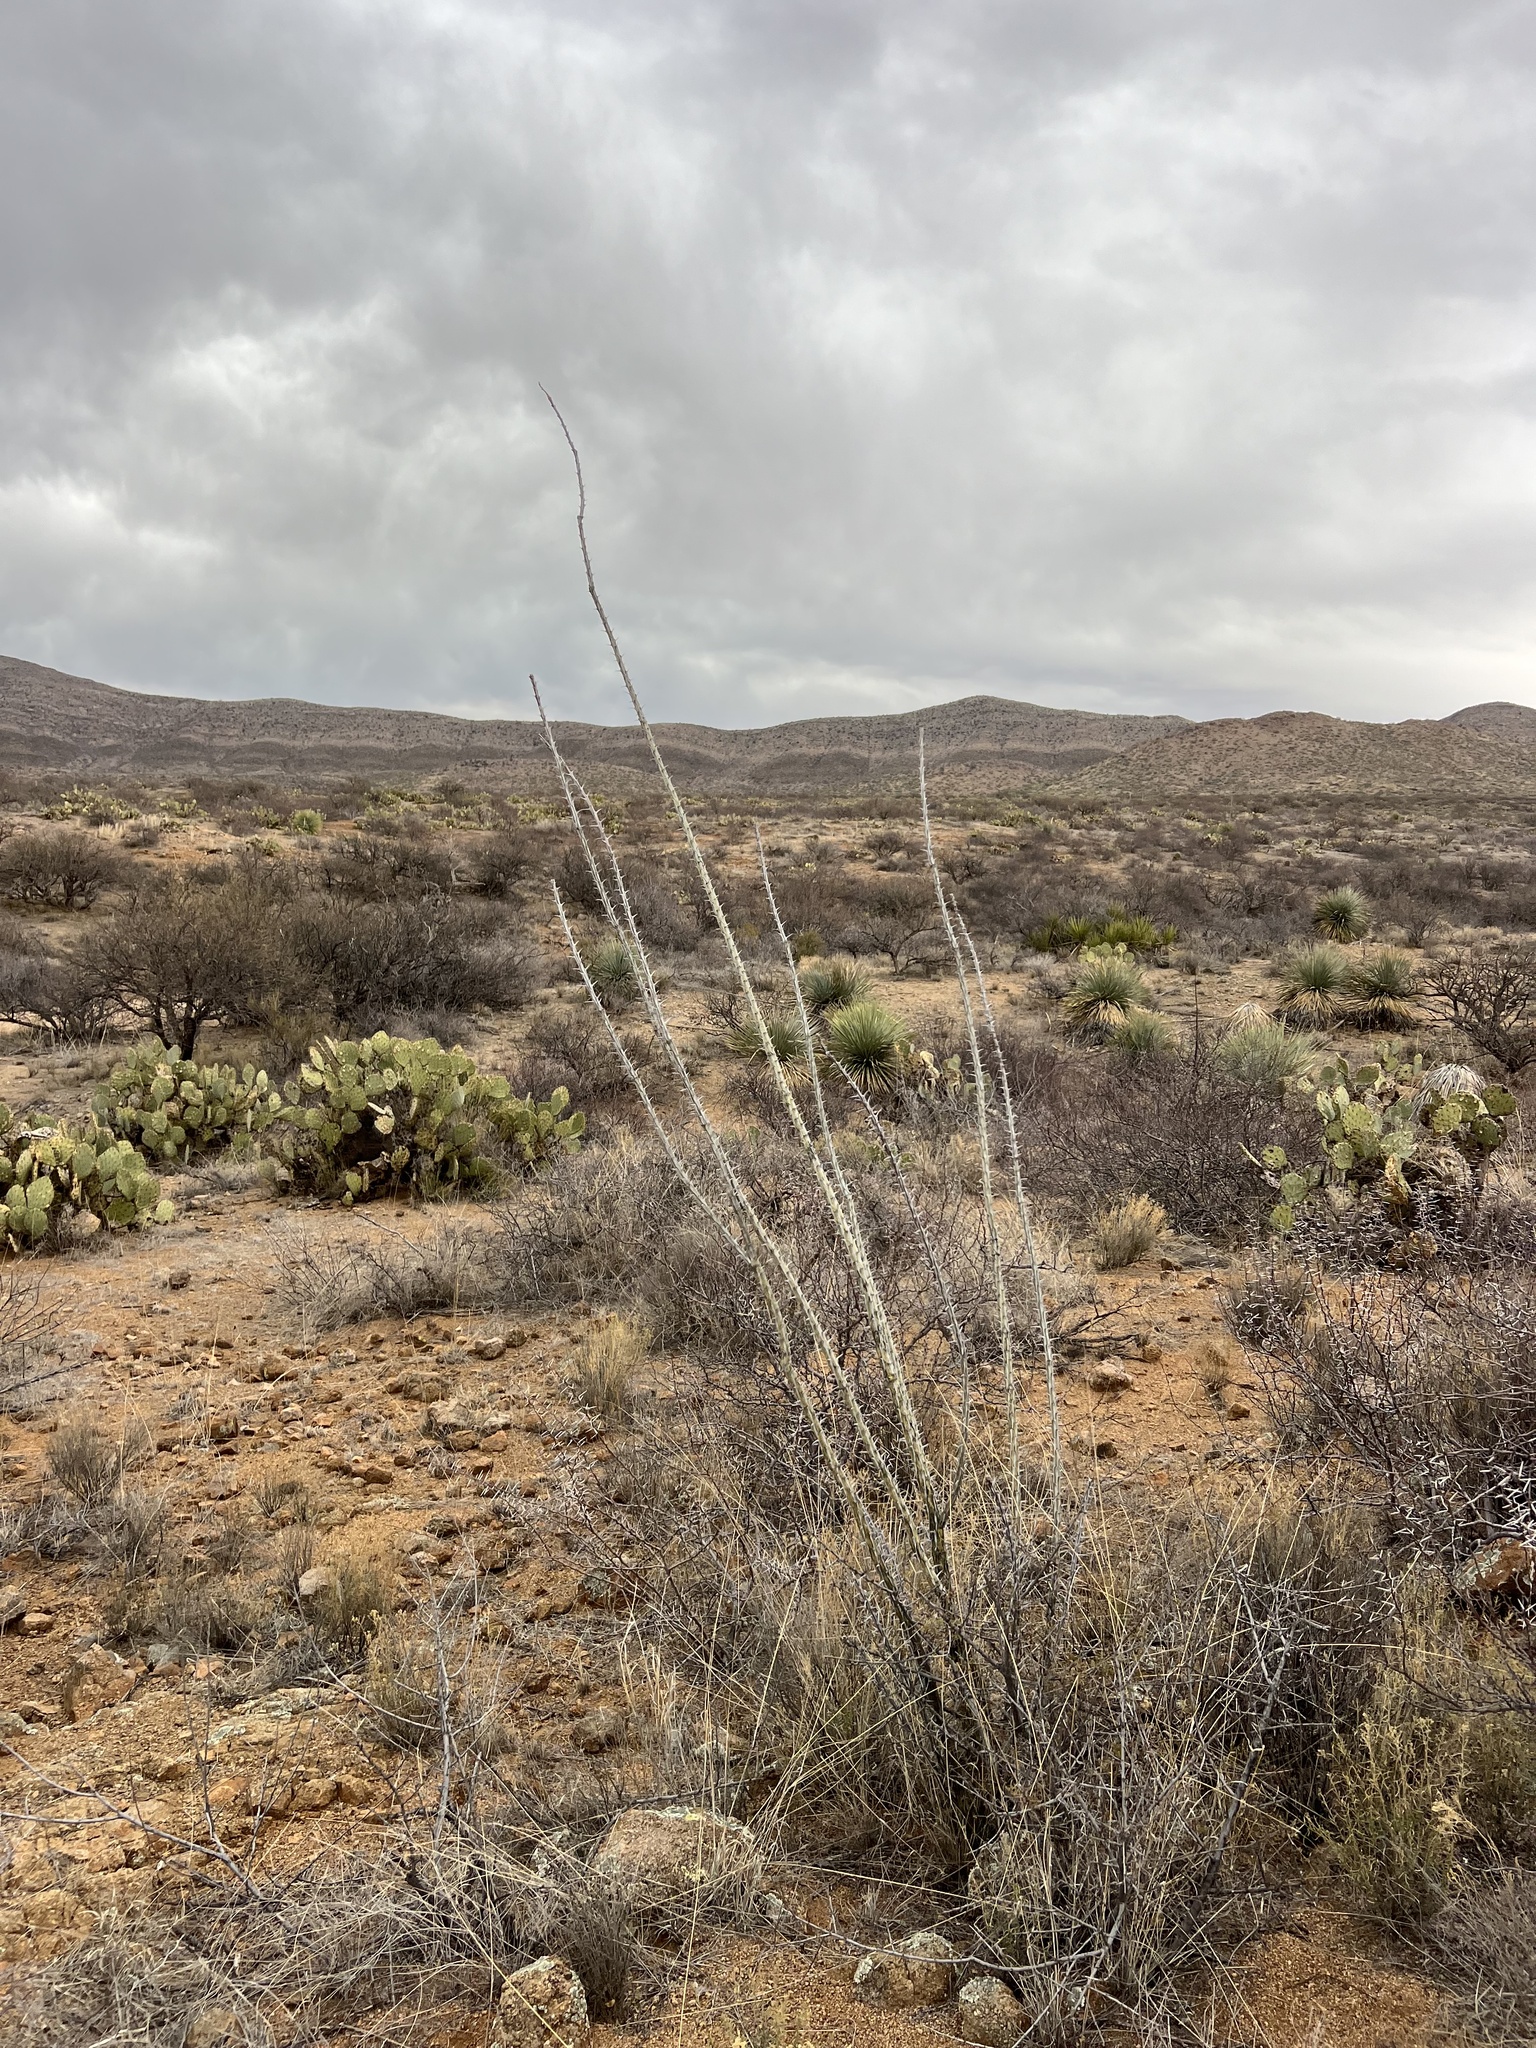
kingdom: Plantae
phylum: Tracheophyta
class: Magnoliopsida
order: Ericales
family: Fouquieriaceae
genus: Fouquieria
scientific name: Fouquieria splendens
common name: Vine-cactus
